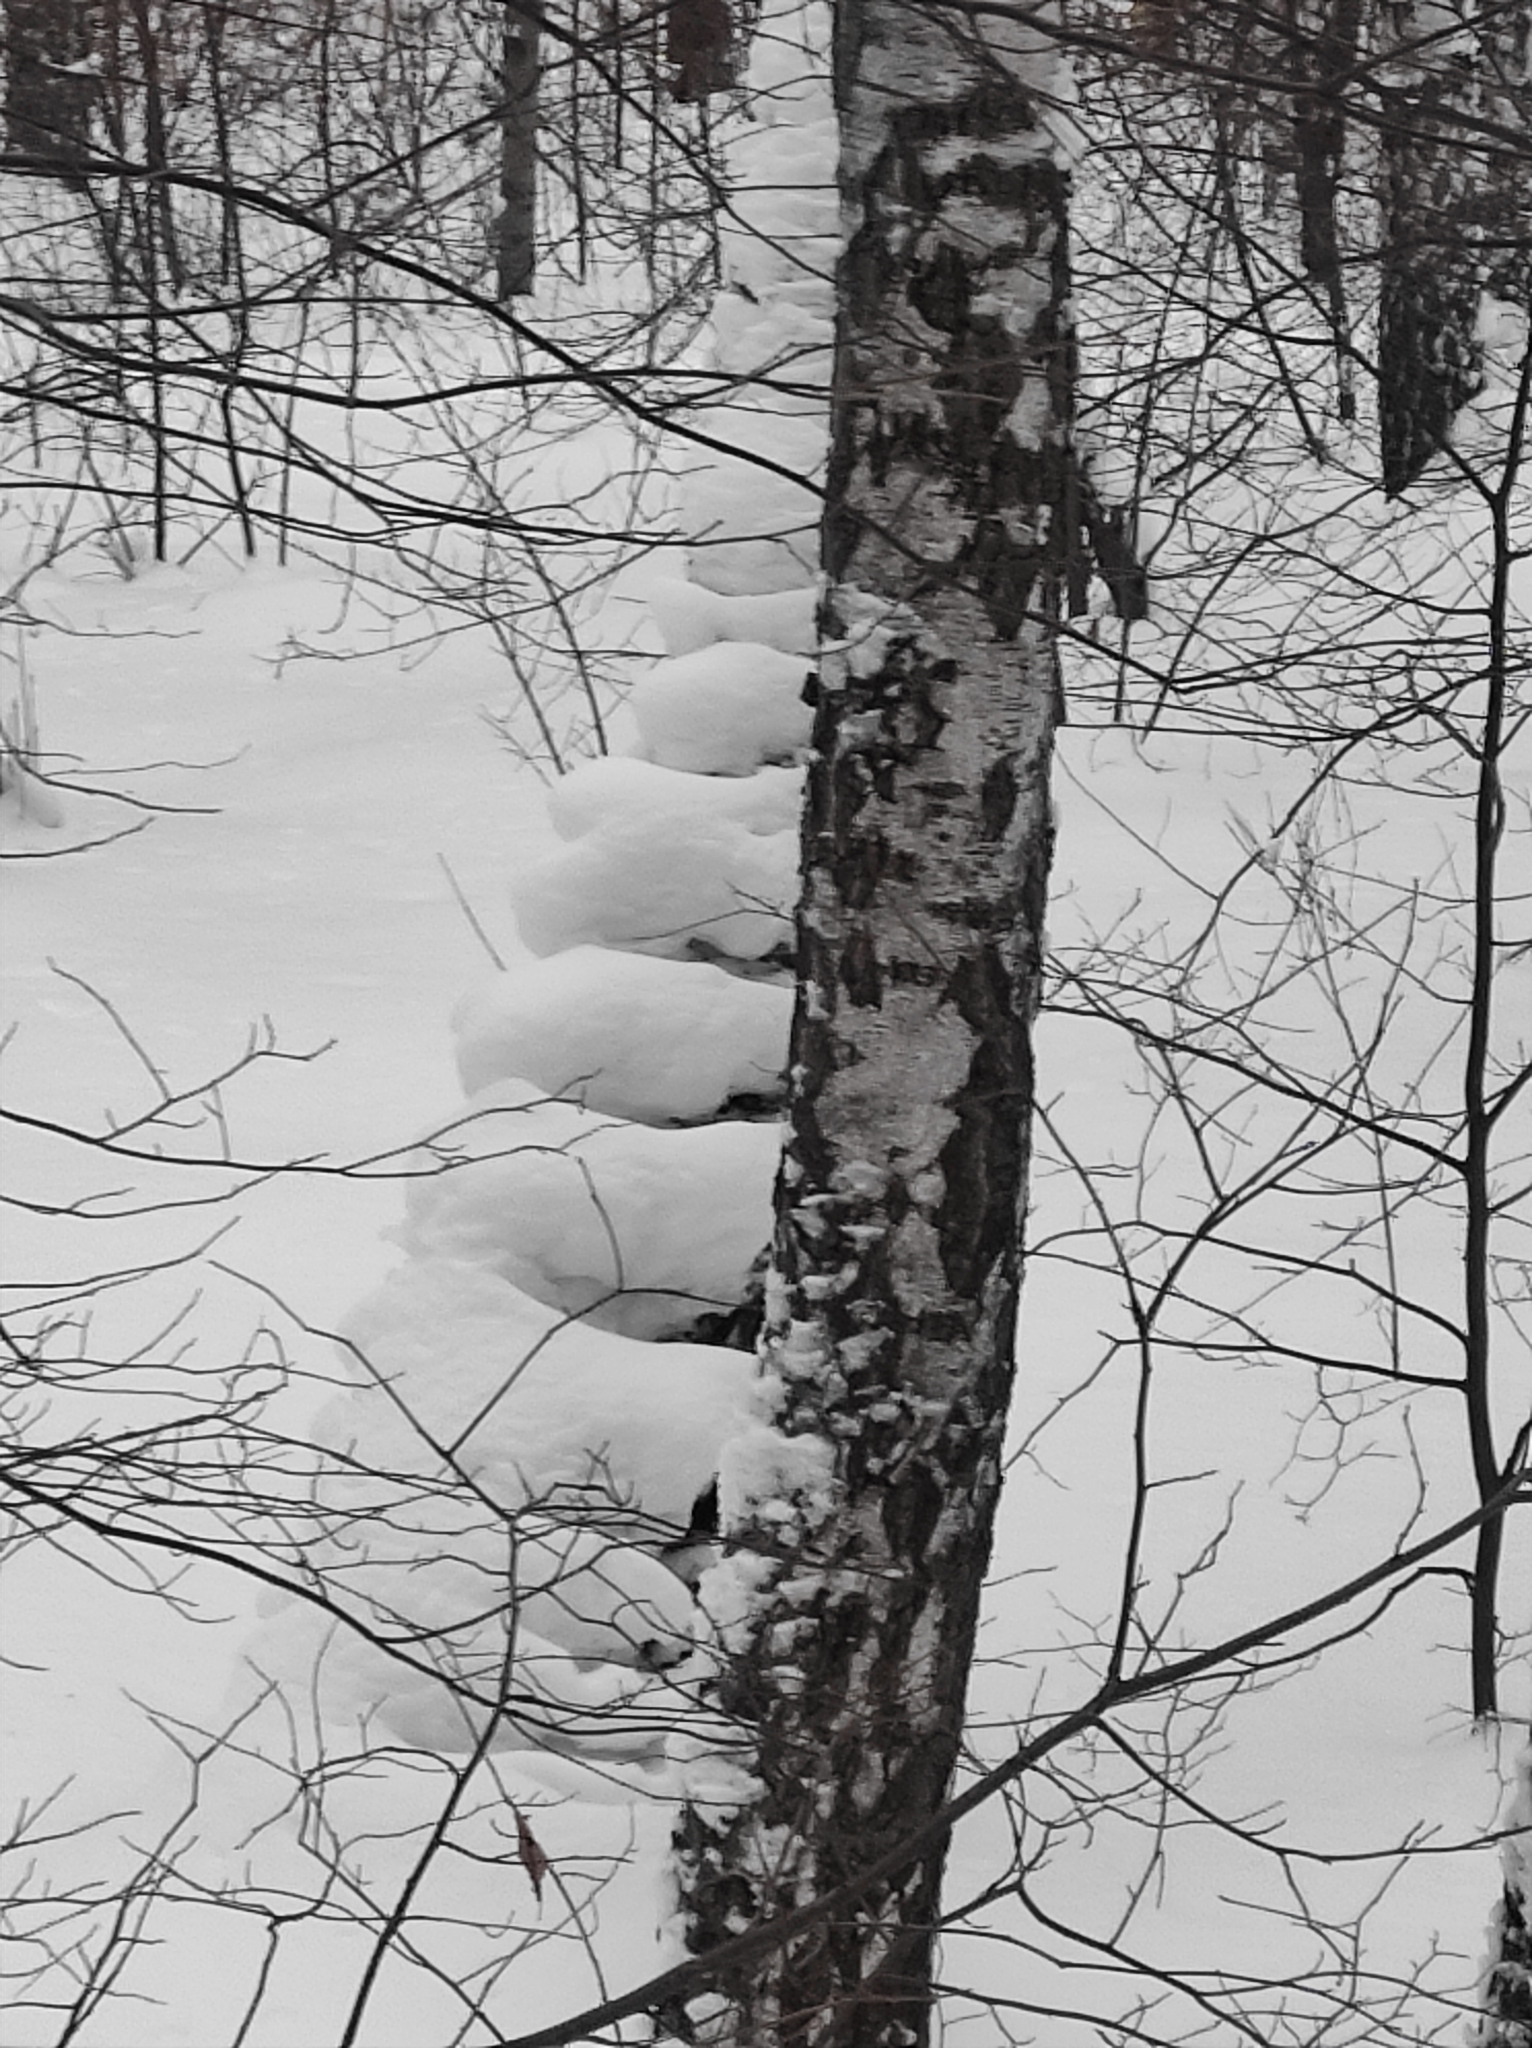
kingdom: Plantae
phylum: Tracheophyta
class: Magnoliopsida
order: Fagales
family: Betulaceae
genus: Betula
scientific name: Betula pendula
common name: Silver birch
